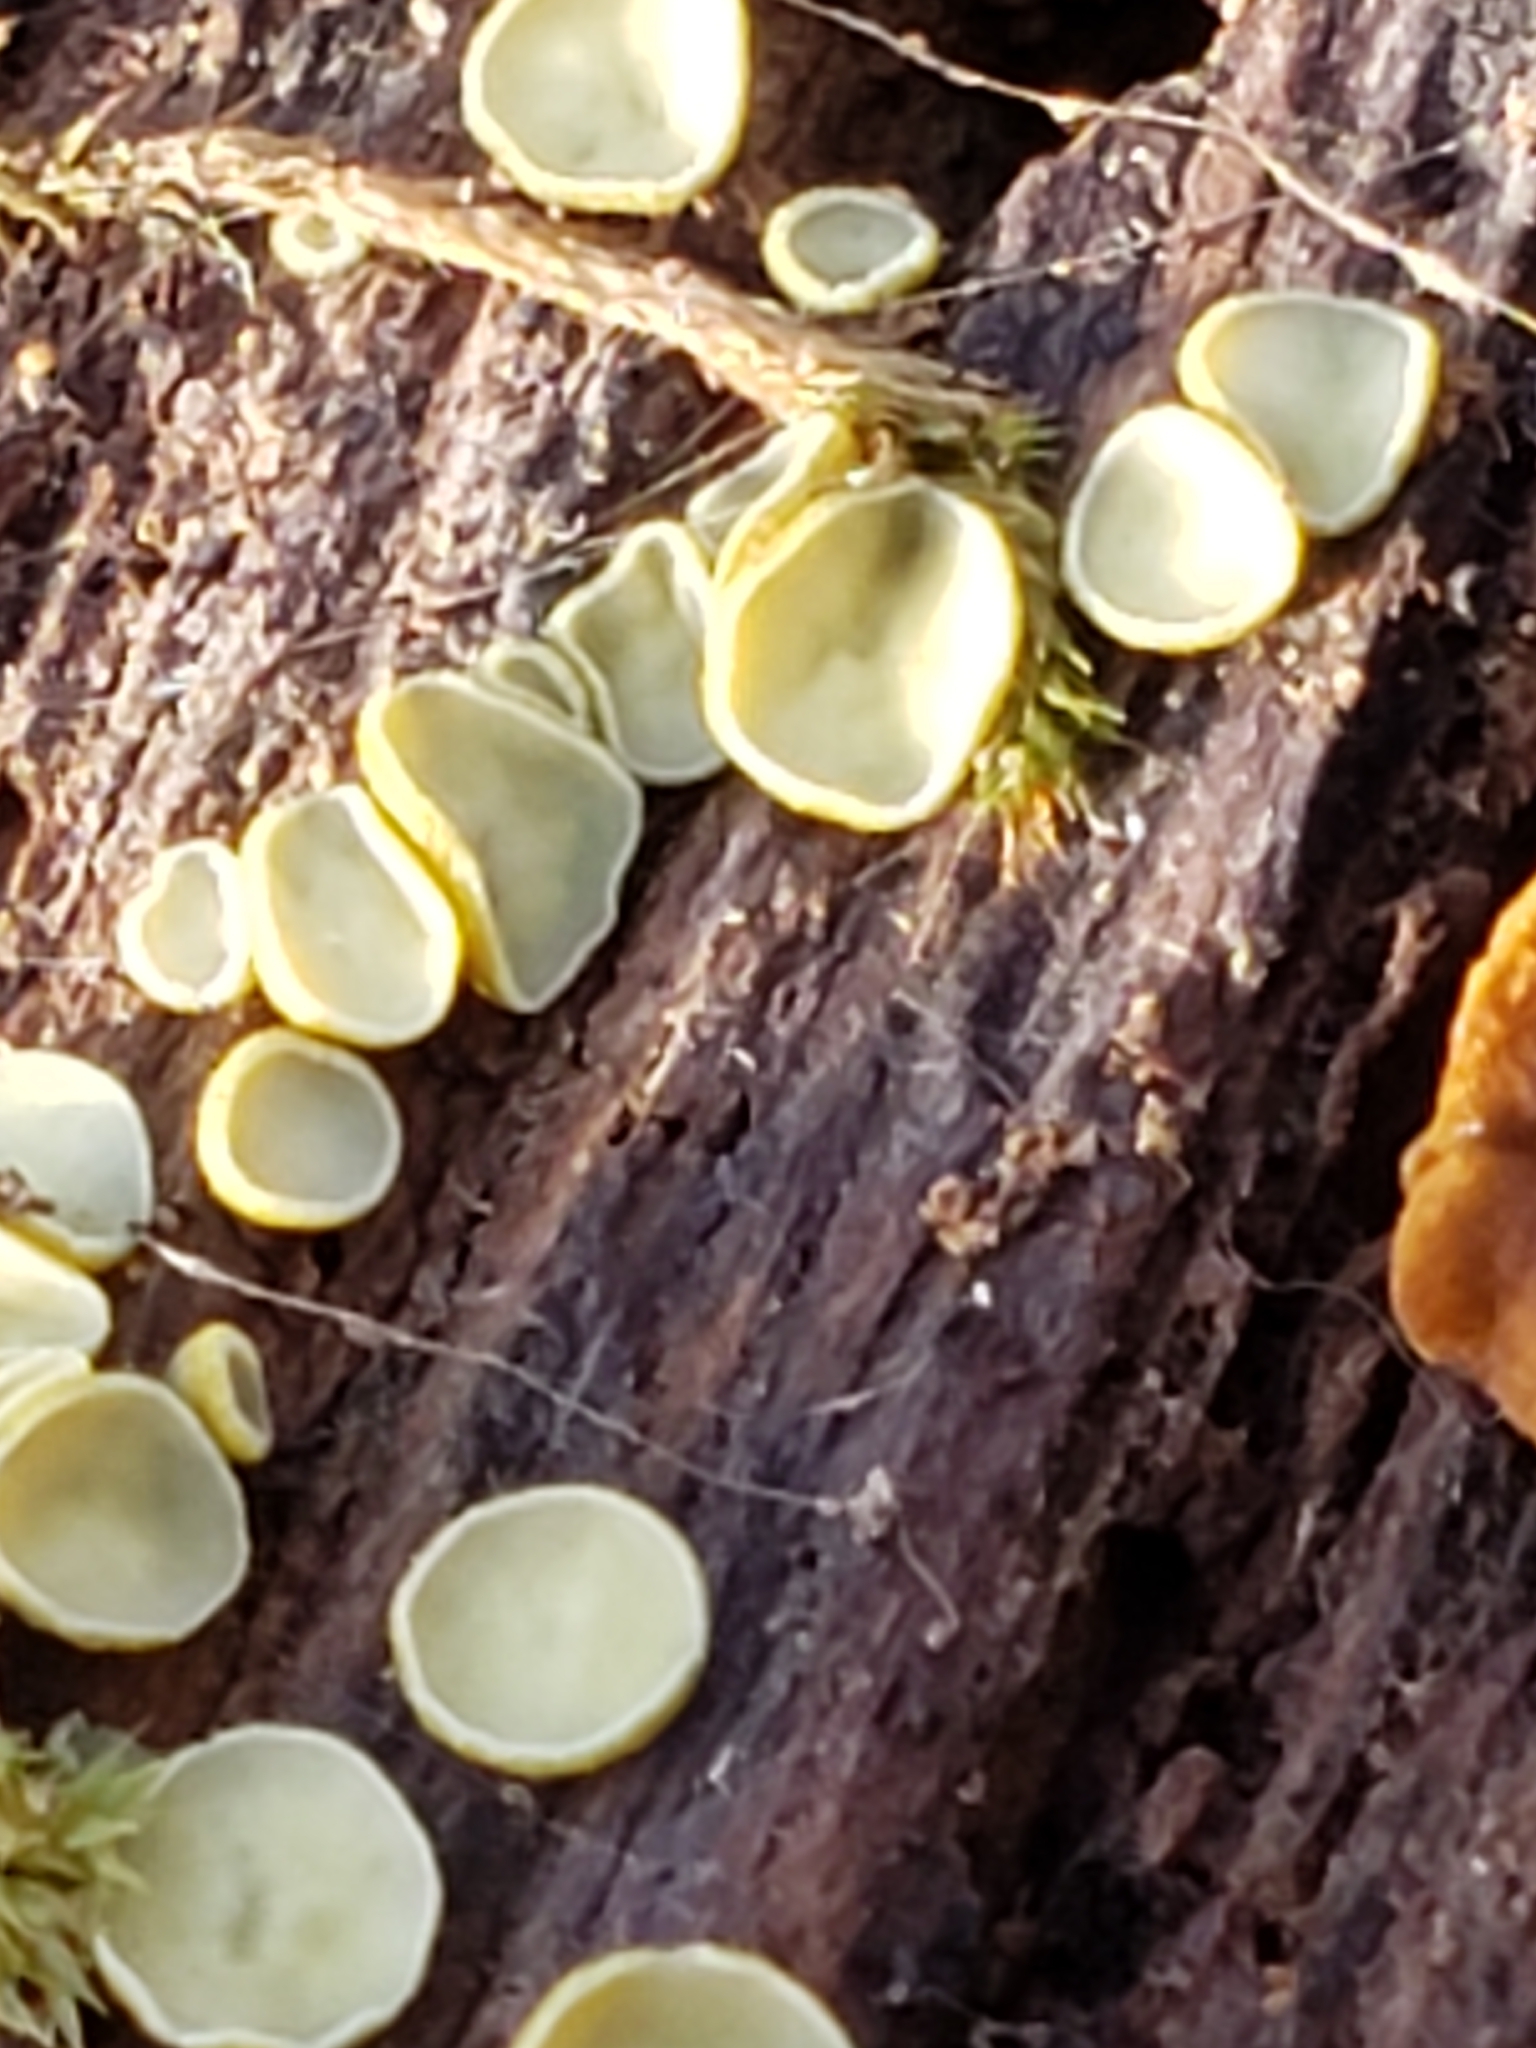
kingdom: Fungi
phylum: Ascomycota
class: Leotiomycetes
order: Helotiales
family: Chlorospleniaceae
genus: Chlorosplenium
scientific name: Chlorosplenium chlora
